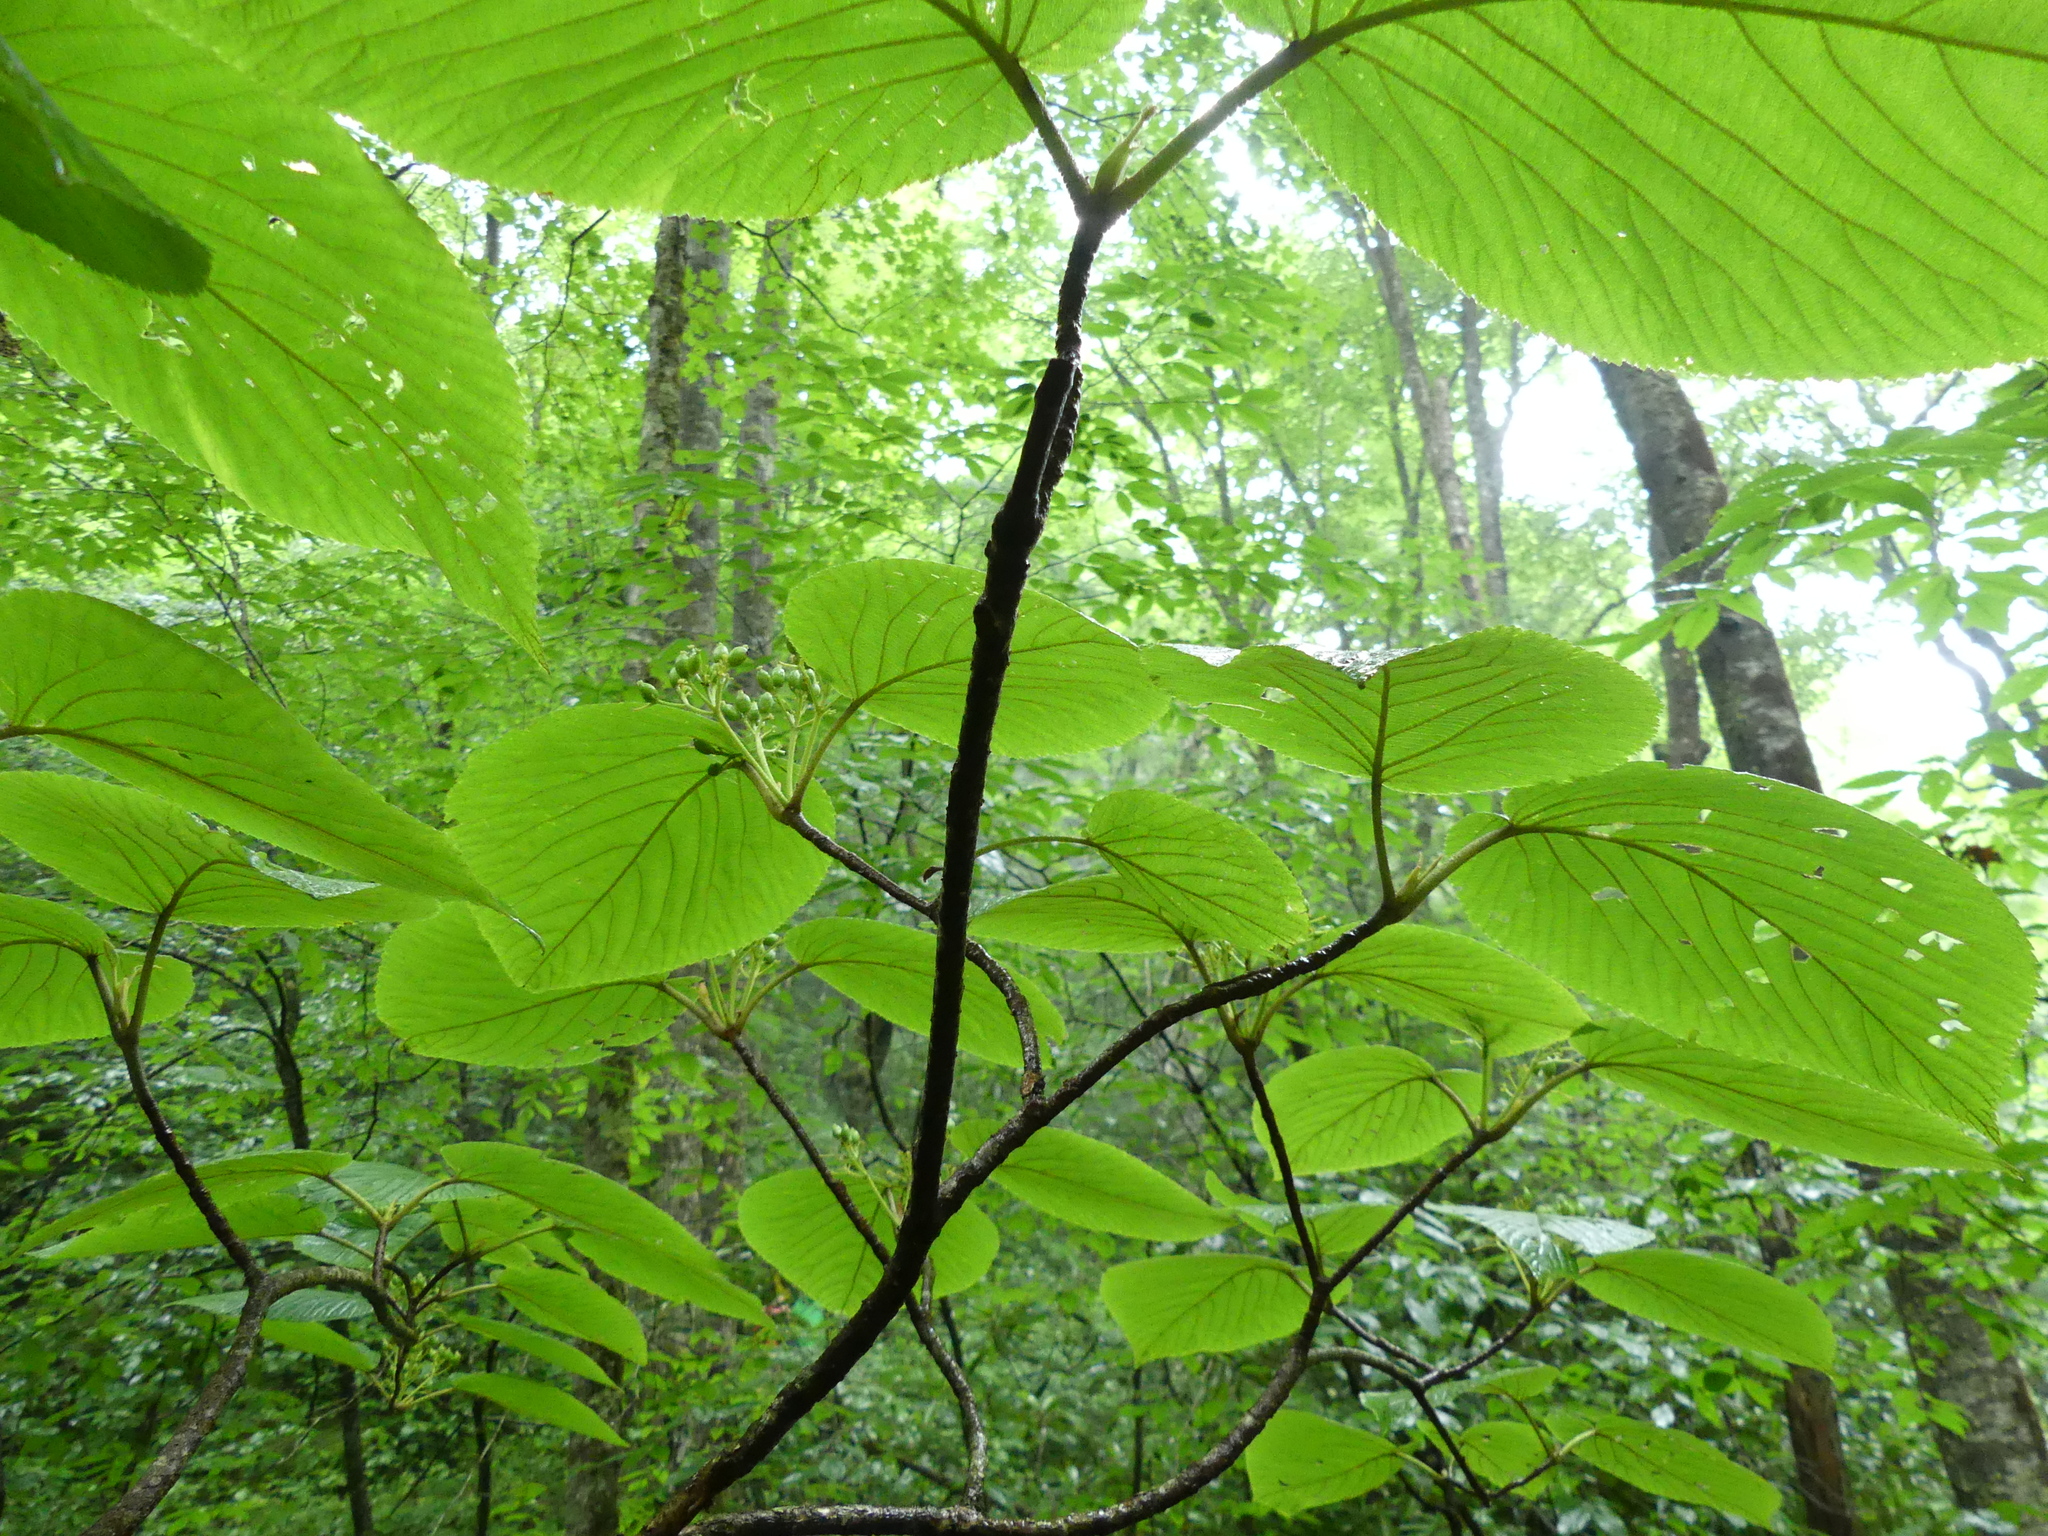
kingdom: Plantae
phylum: Tracheophyta
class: Magnoliopsida
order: Dipsacales
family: Viburnaceae
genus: Viburnum
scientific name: Viburnum lantanoides
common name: Hobblebush
